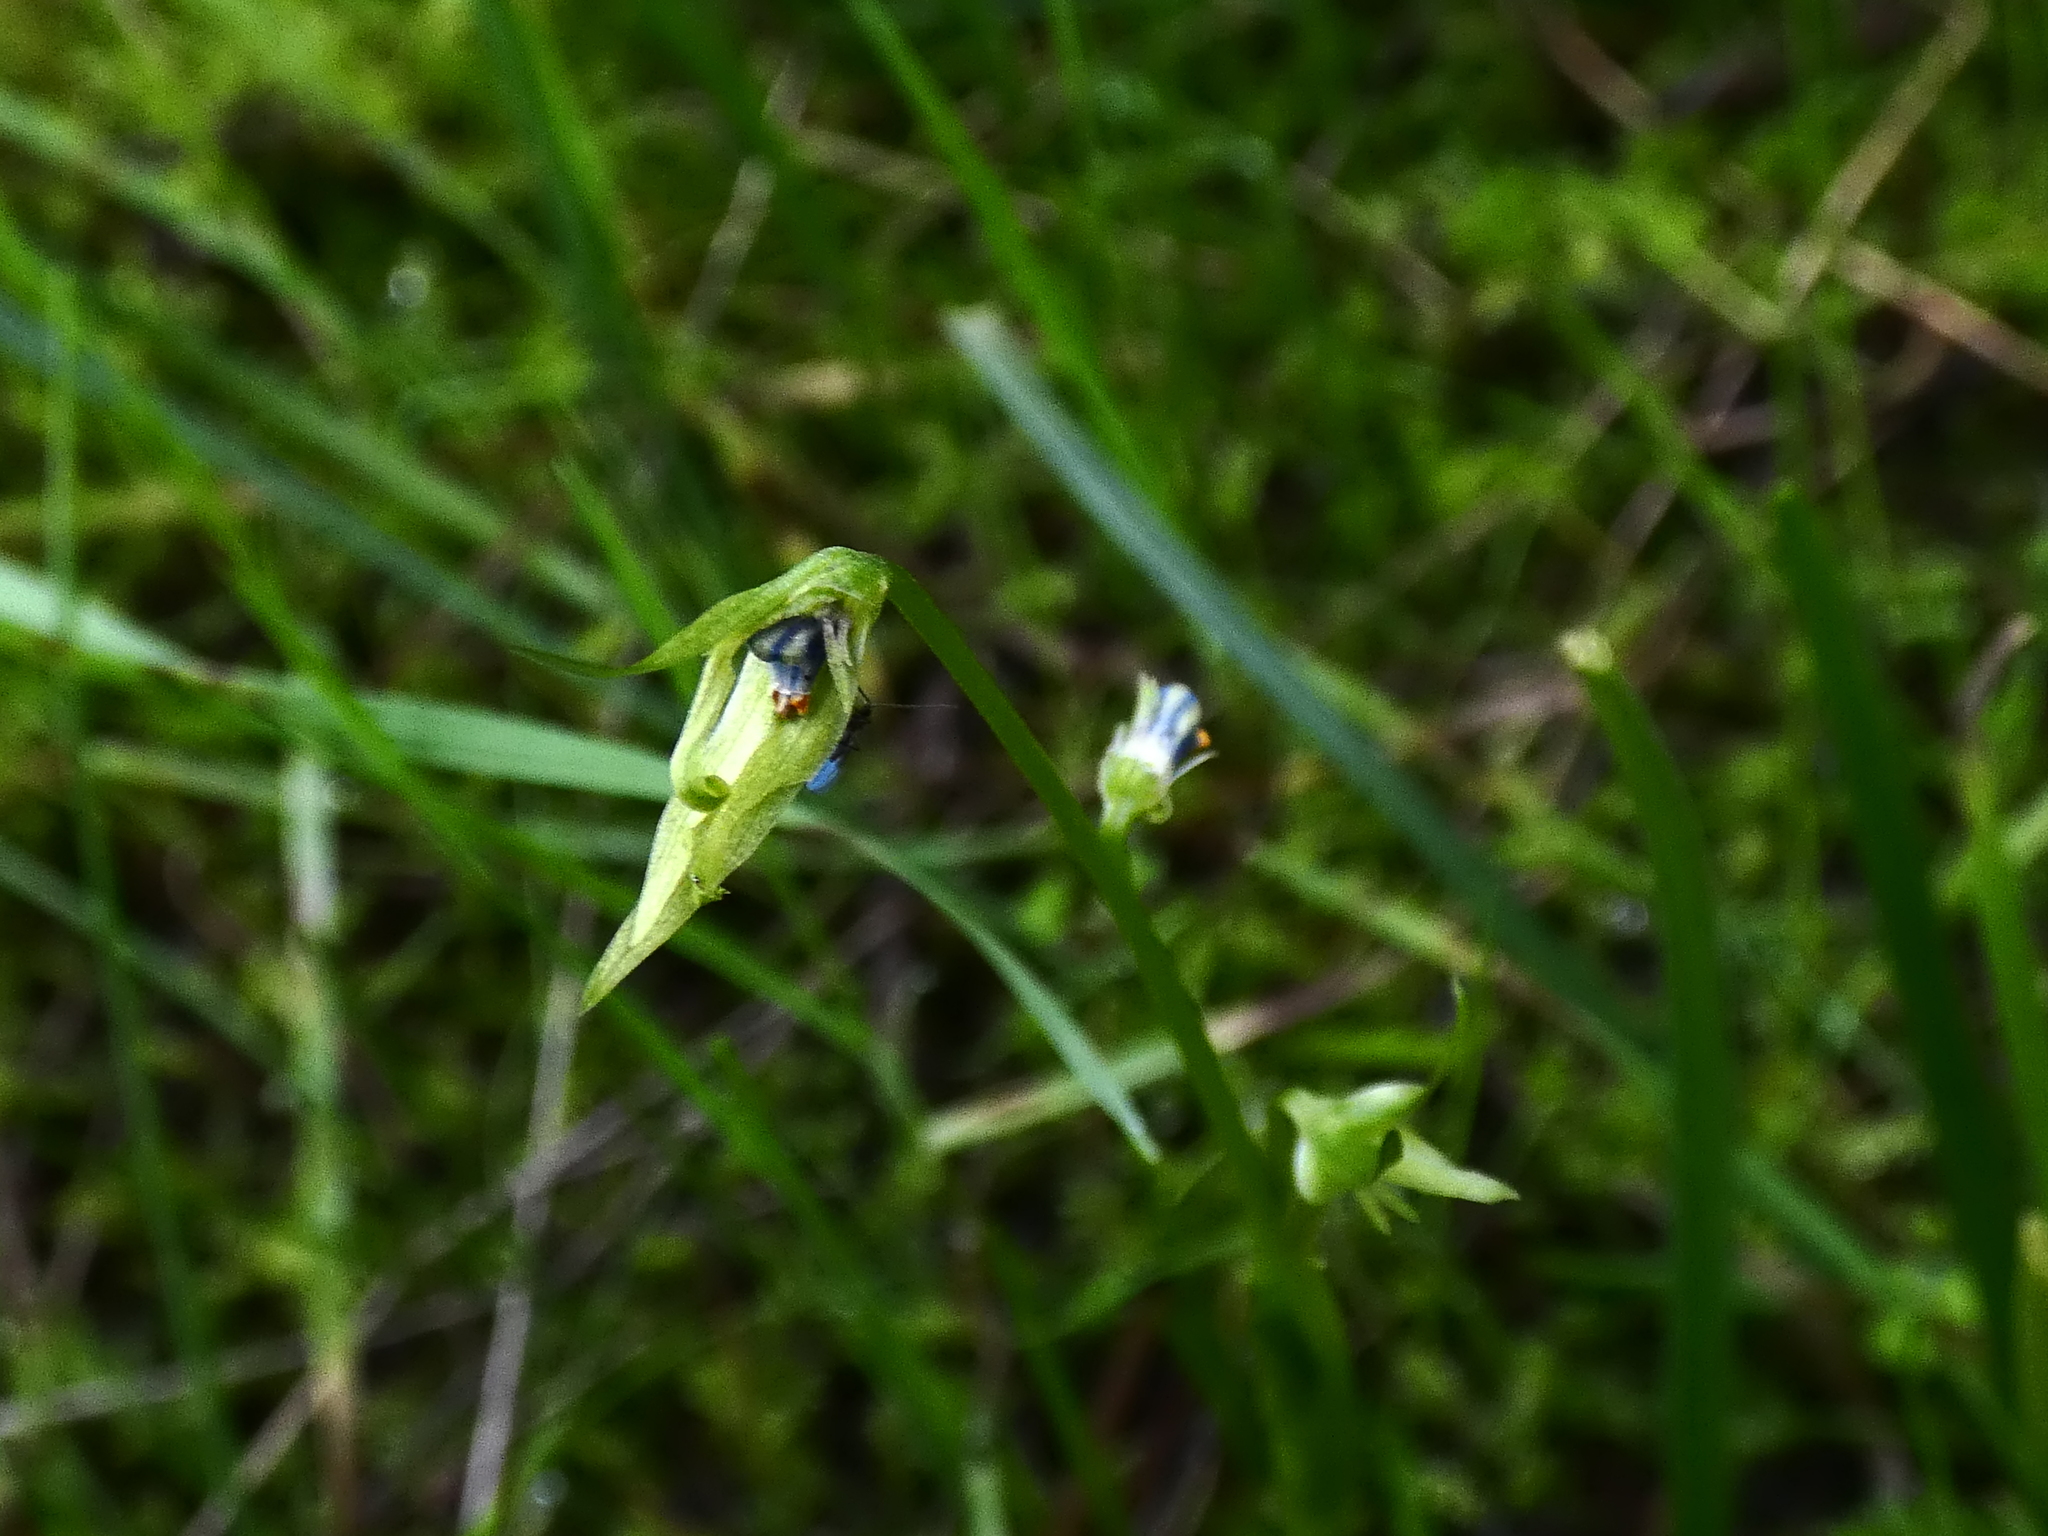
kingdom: Plantae
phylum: Tracheophyta
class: Liliopsida
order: Asparagales
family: Amaryllidaceae
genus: Miersia
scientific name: Miersia chilensis
